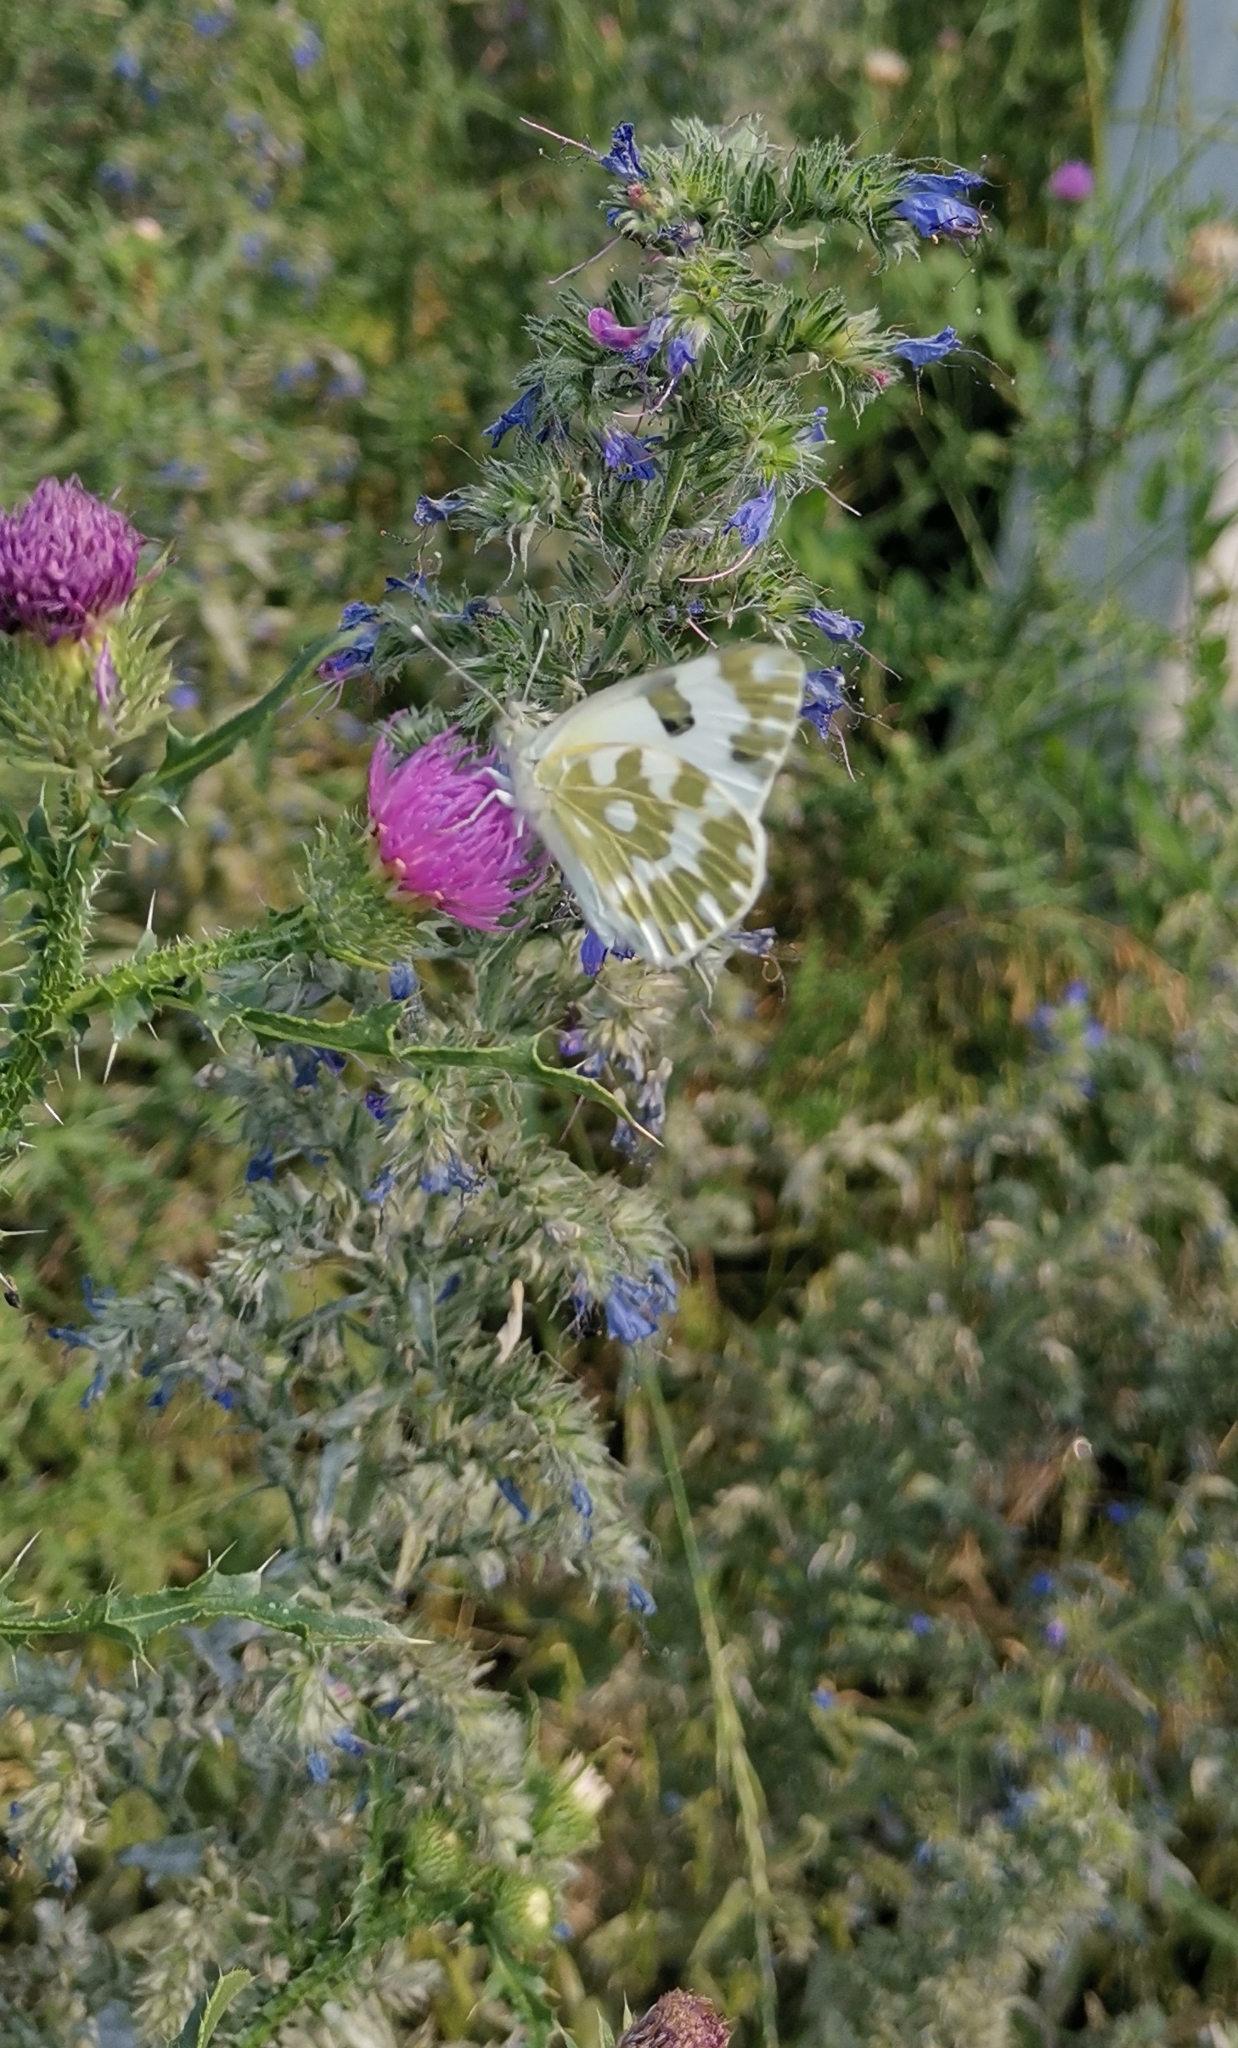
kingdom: Animalia
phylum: Arthropoda
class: Insecta
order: Lepidoptera
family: Pieridae
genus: Pontia
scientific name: Pontia edusa
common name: Eastern bath white
